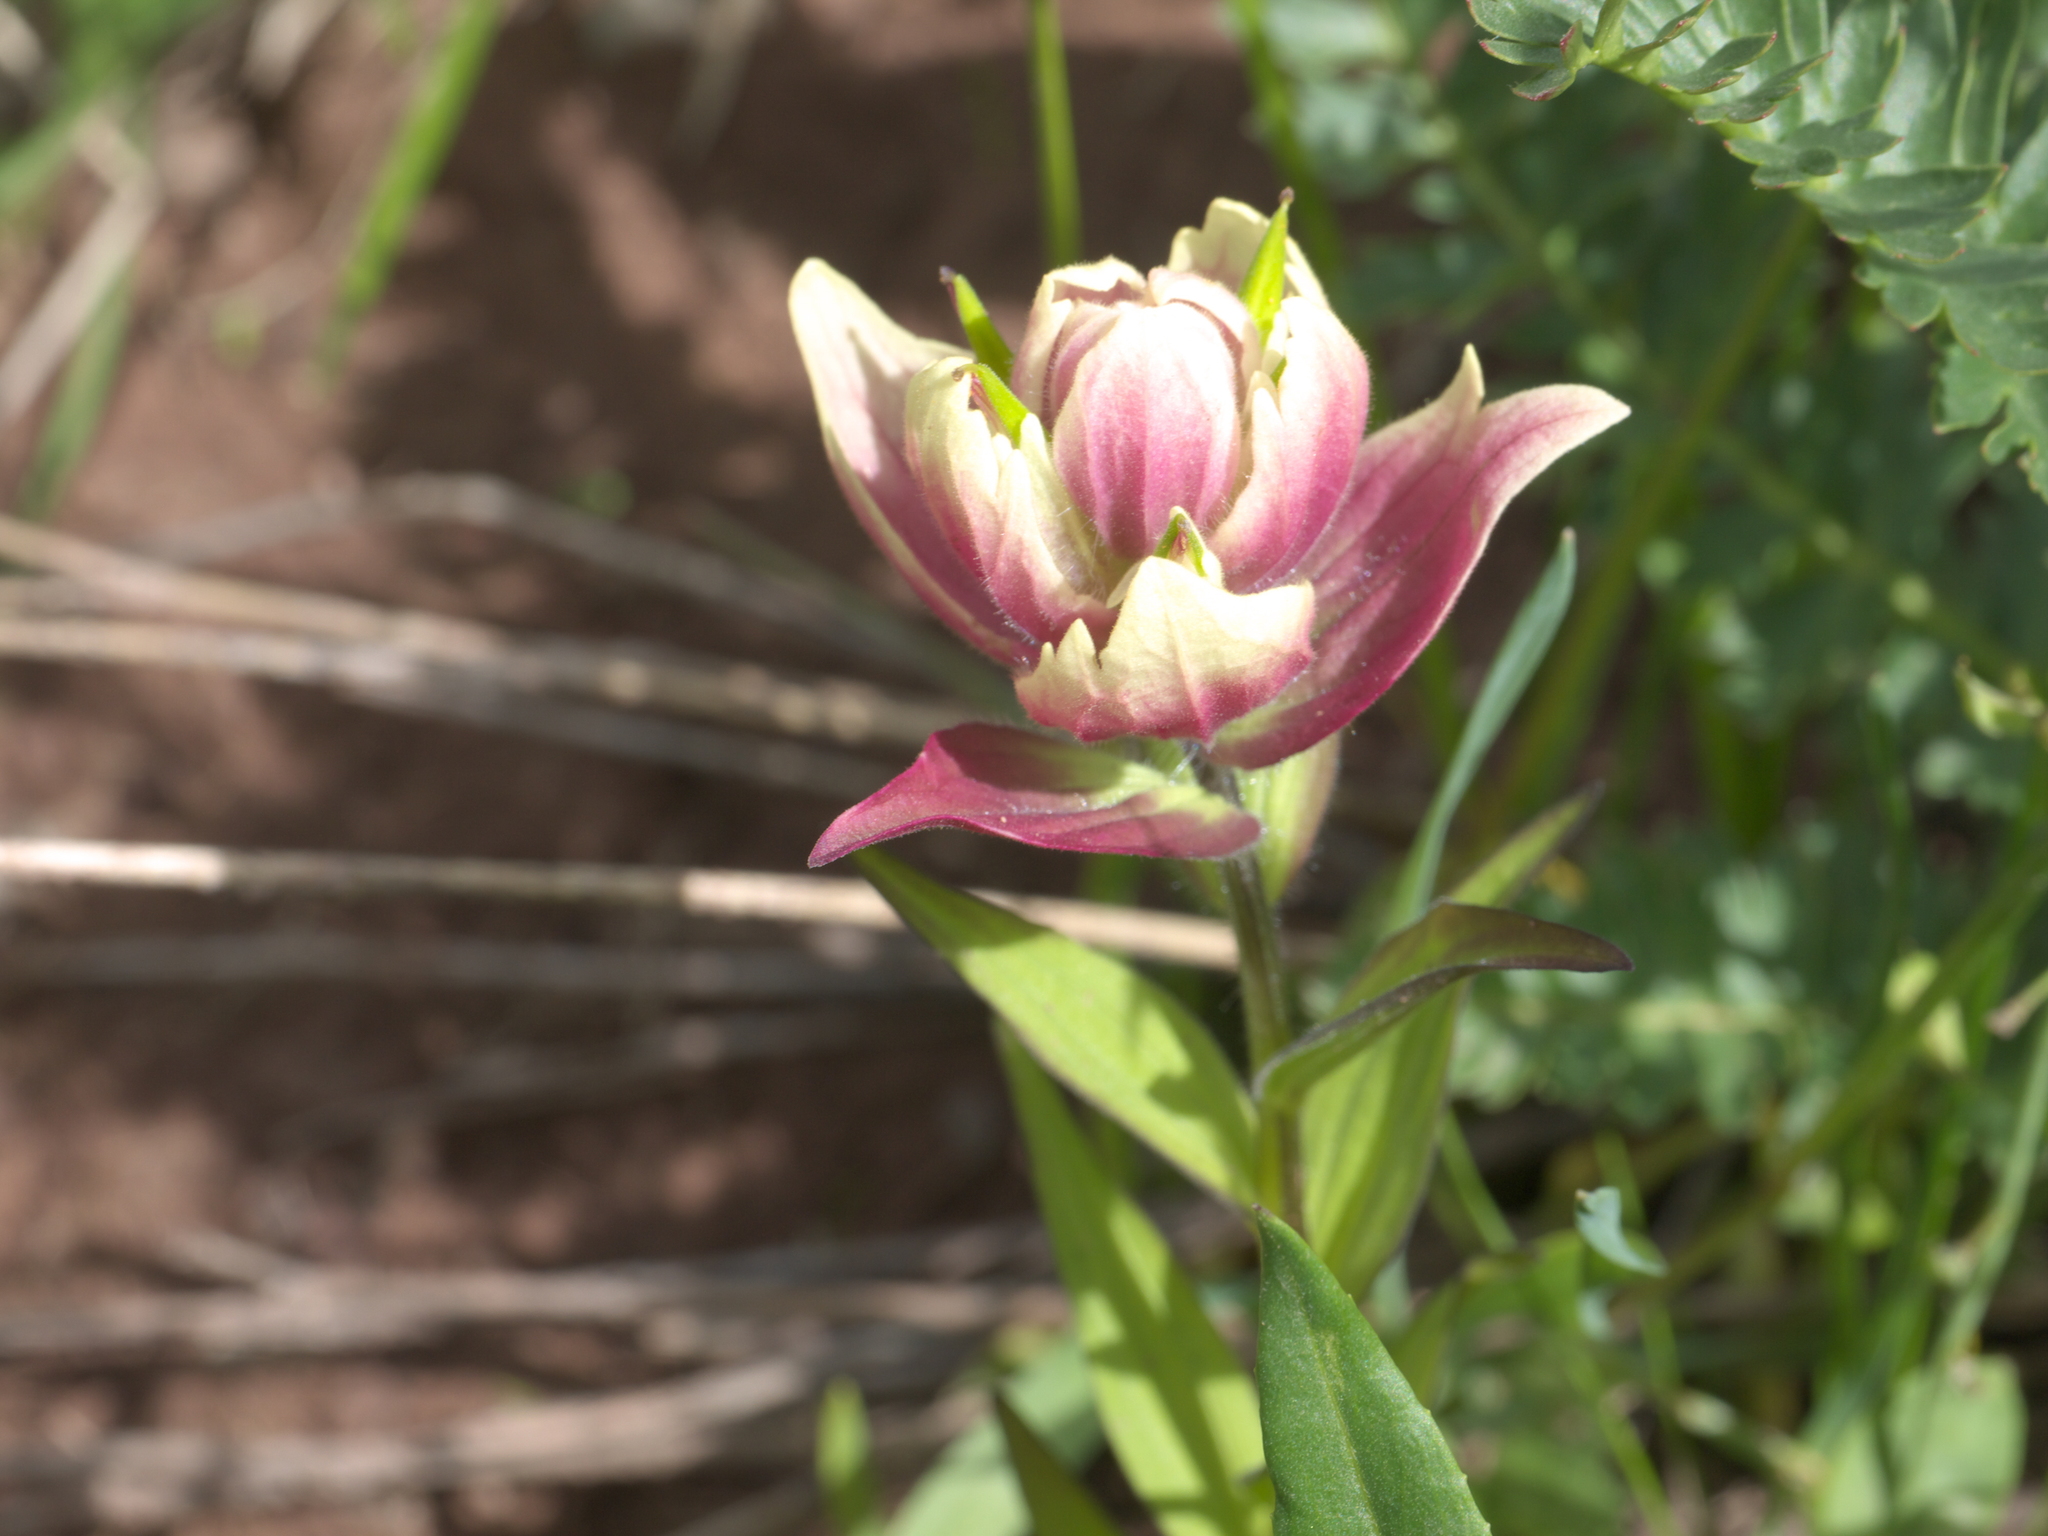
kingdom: Plantae
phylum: Tracheophyta
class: Magnoliopsida
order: Lamiales
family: Orobanchaceae
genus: Castilleja
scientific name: Castilleja rhexifolia
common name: Rocky mountain paintbrush
